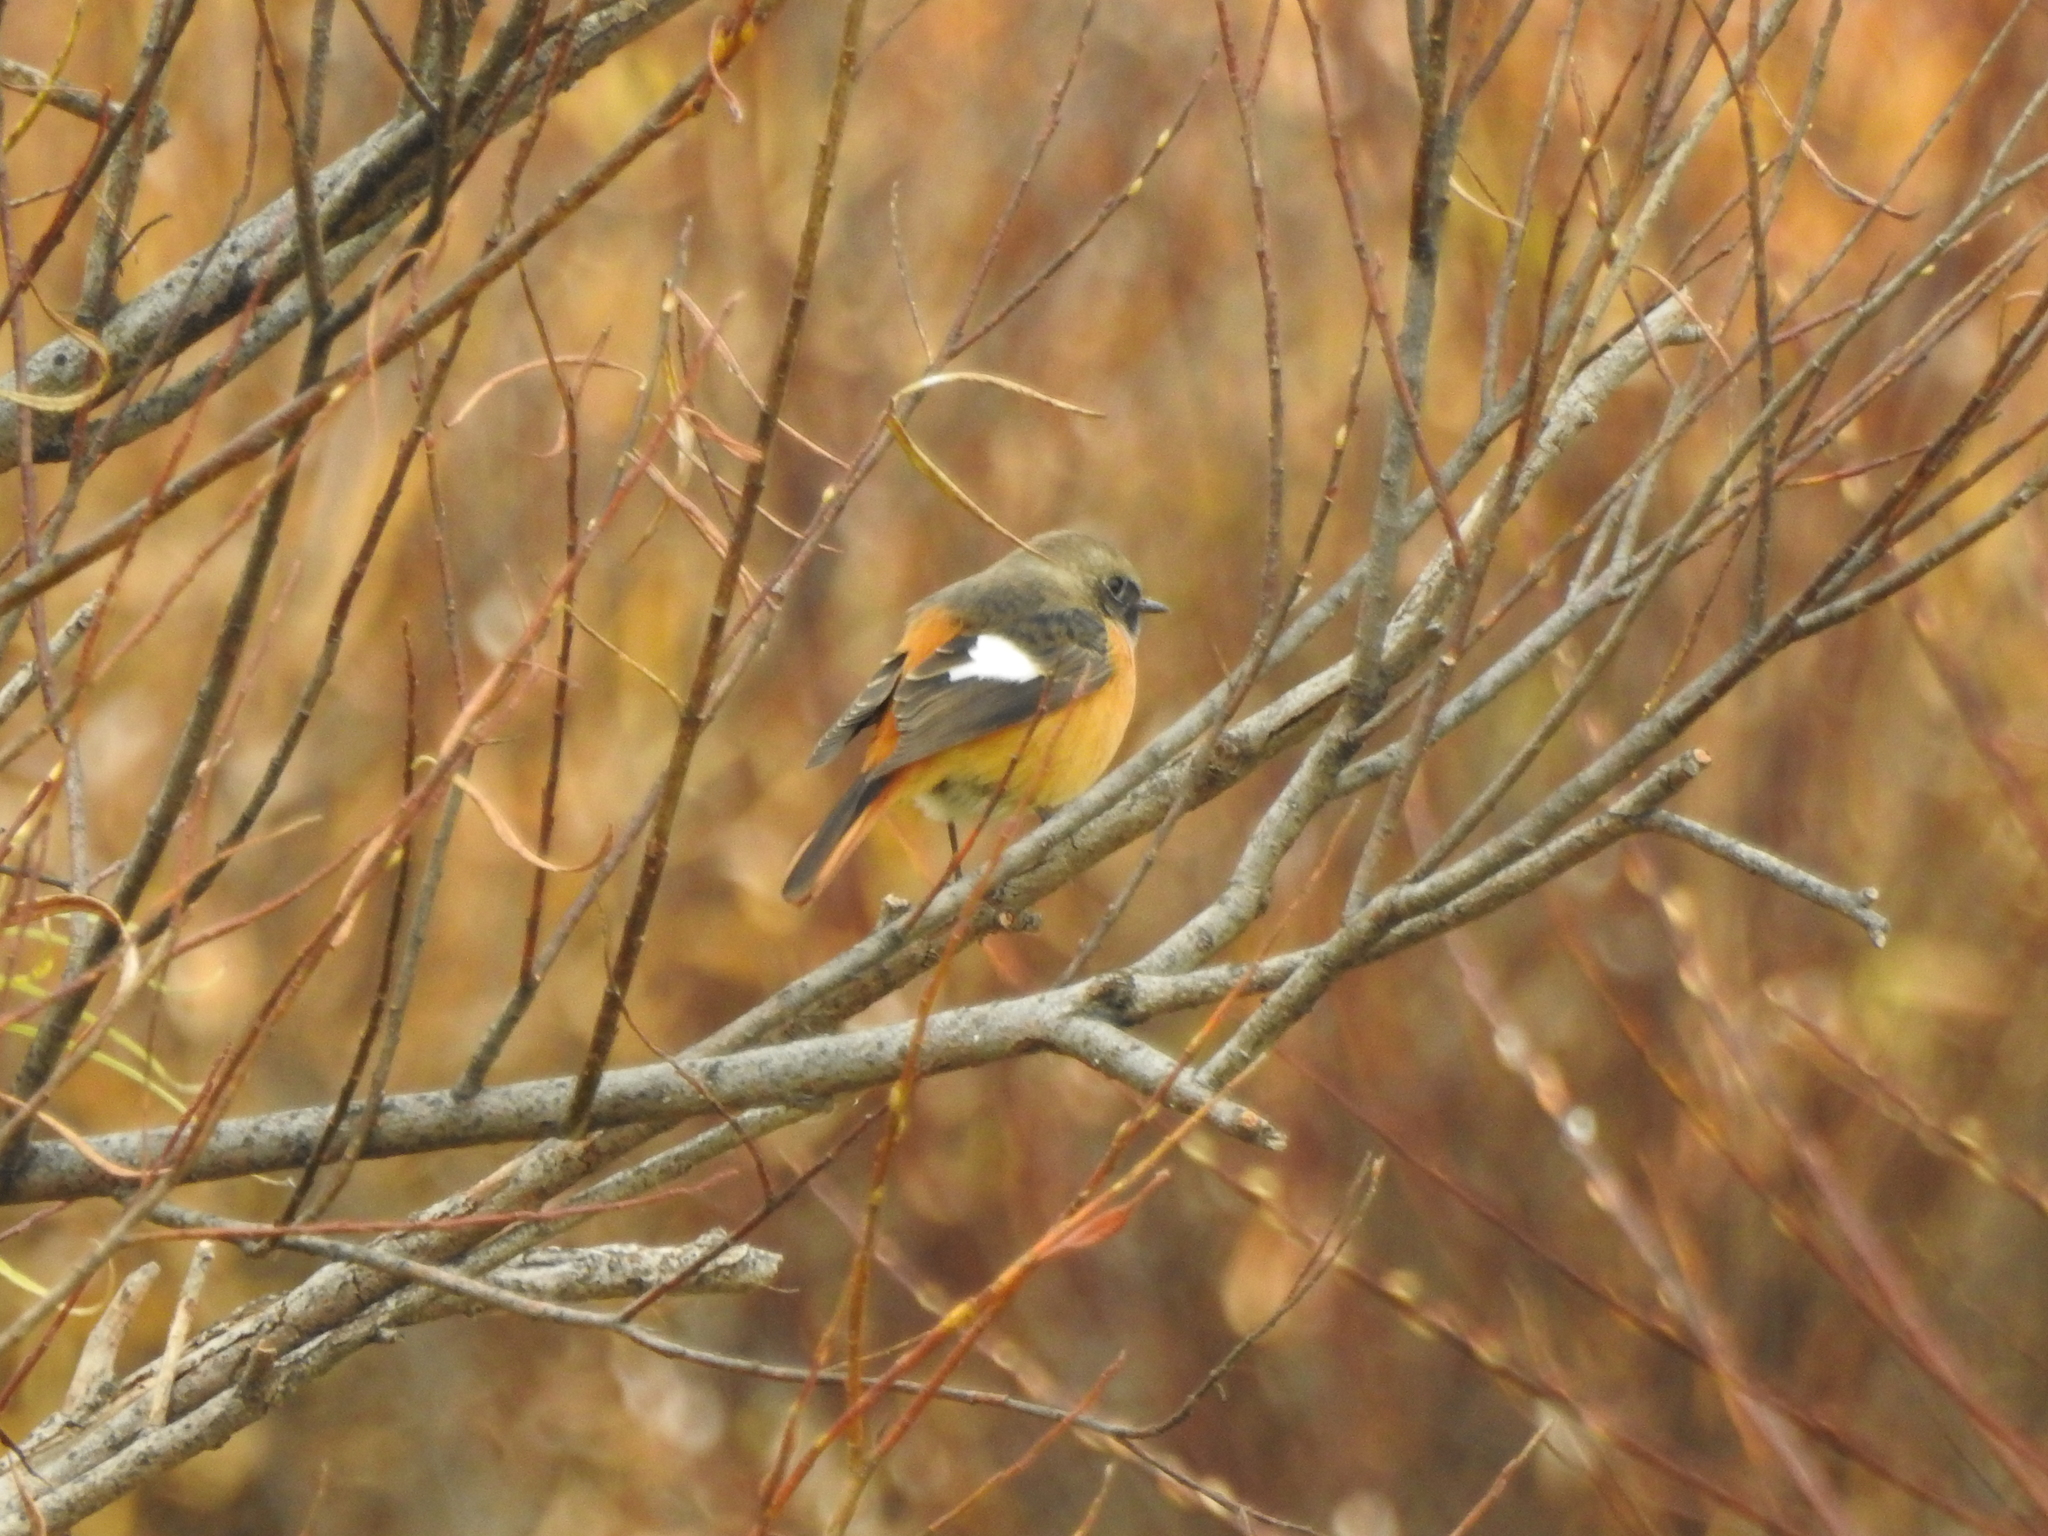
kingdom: Animalia
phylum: Chordata
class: Aves
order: Passeriformes
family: Muscicapidae
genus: Phoenicurus
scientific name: Phoenicurus auroreus
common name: Daurian redstart
